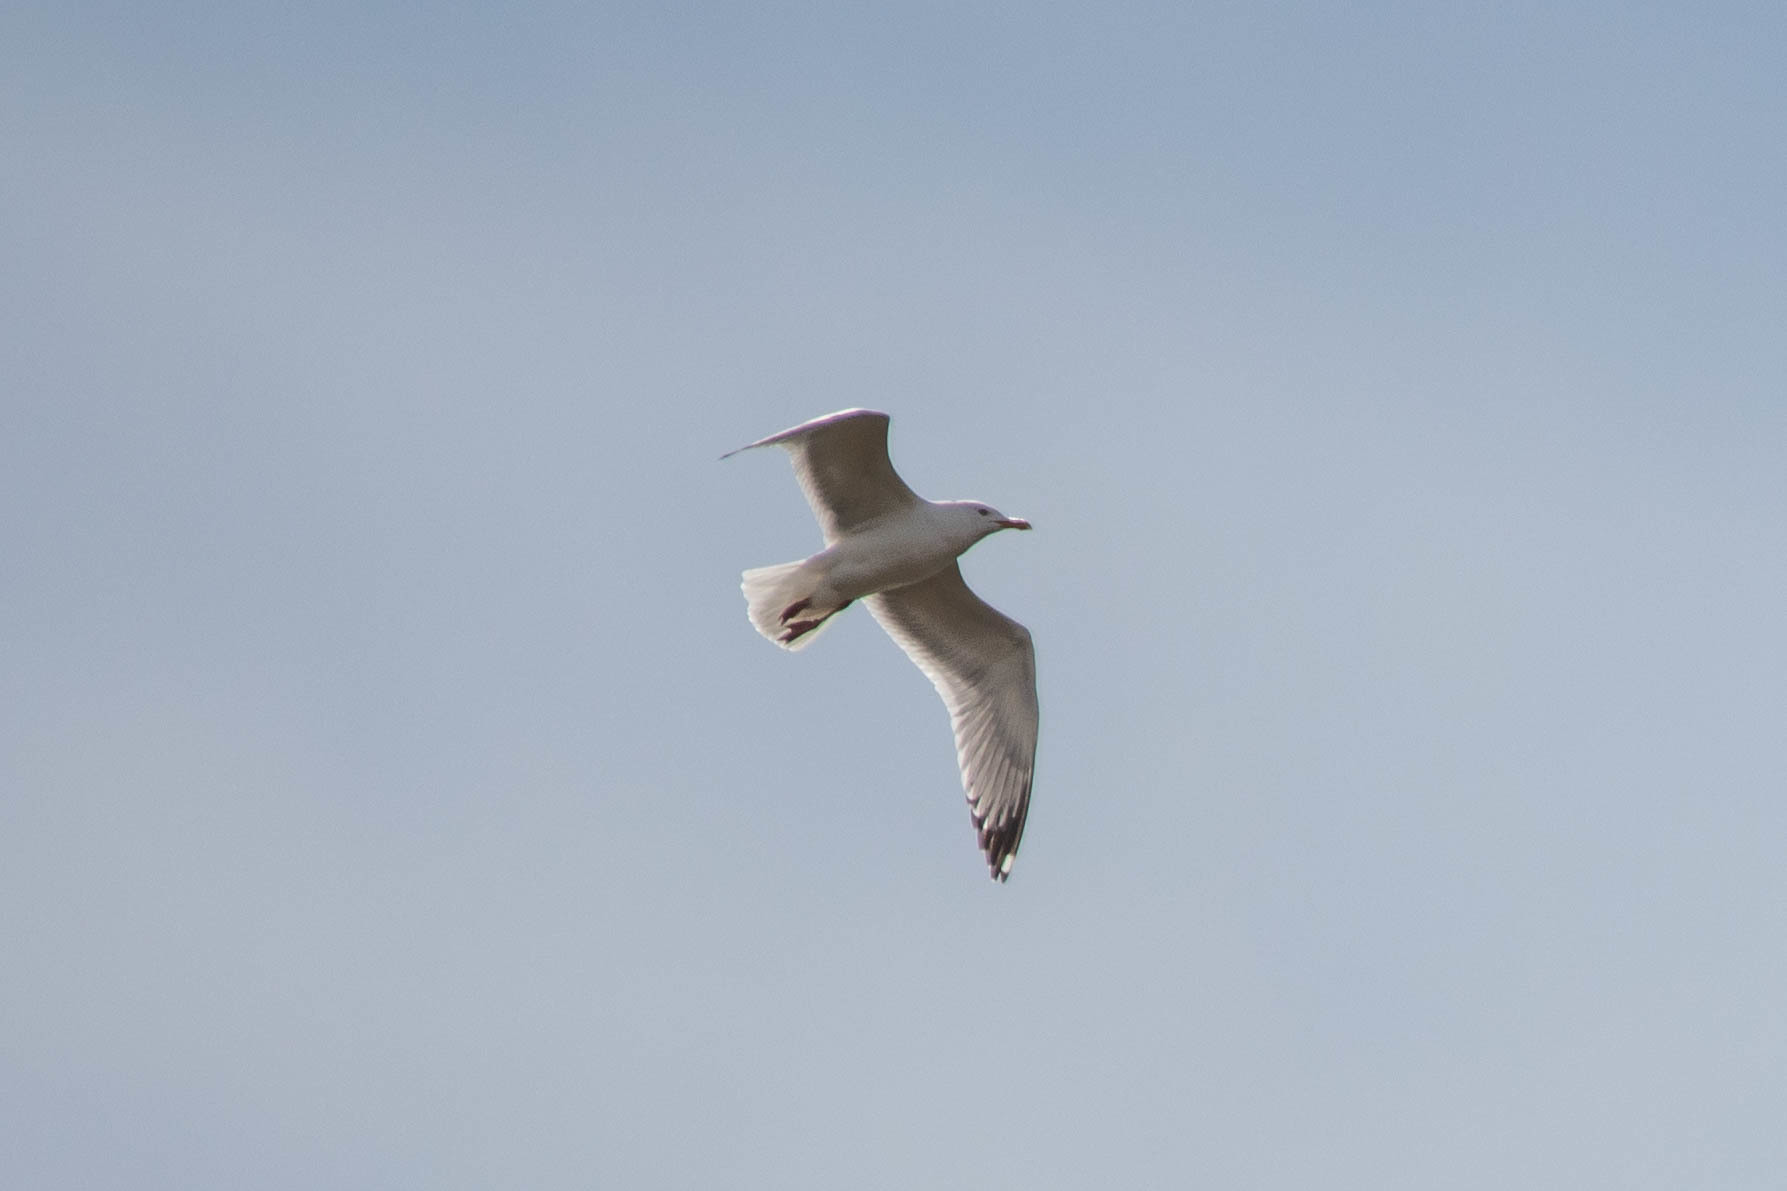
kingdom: Animalia
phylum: Chordata
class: Aves
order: Charadriiformes
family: Laridae
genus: Larus
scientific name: Larus argentatus
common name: Herring gull
